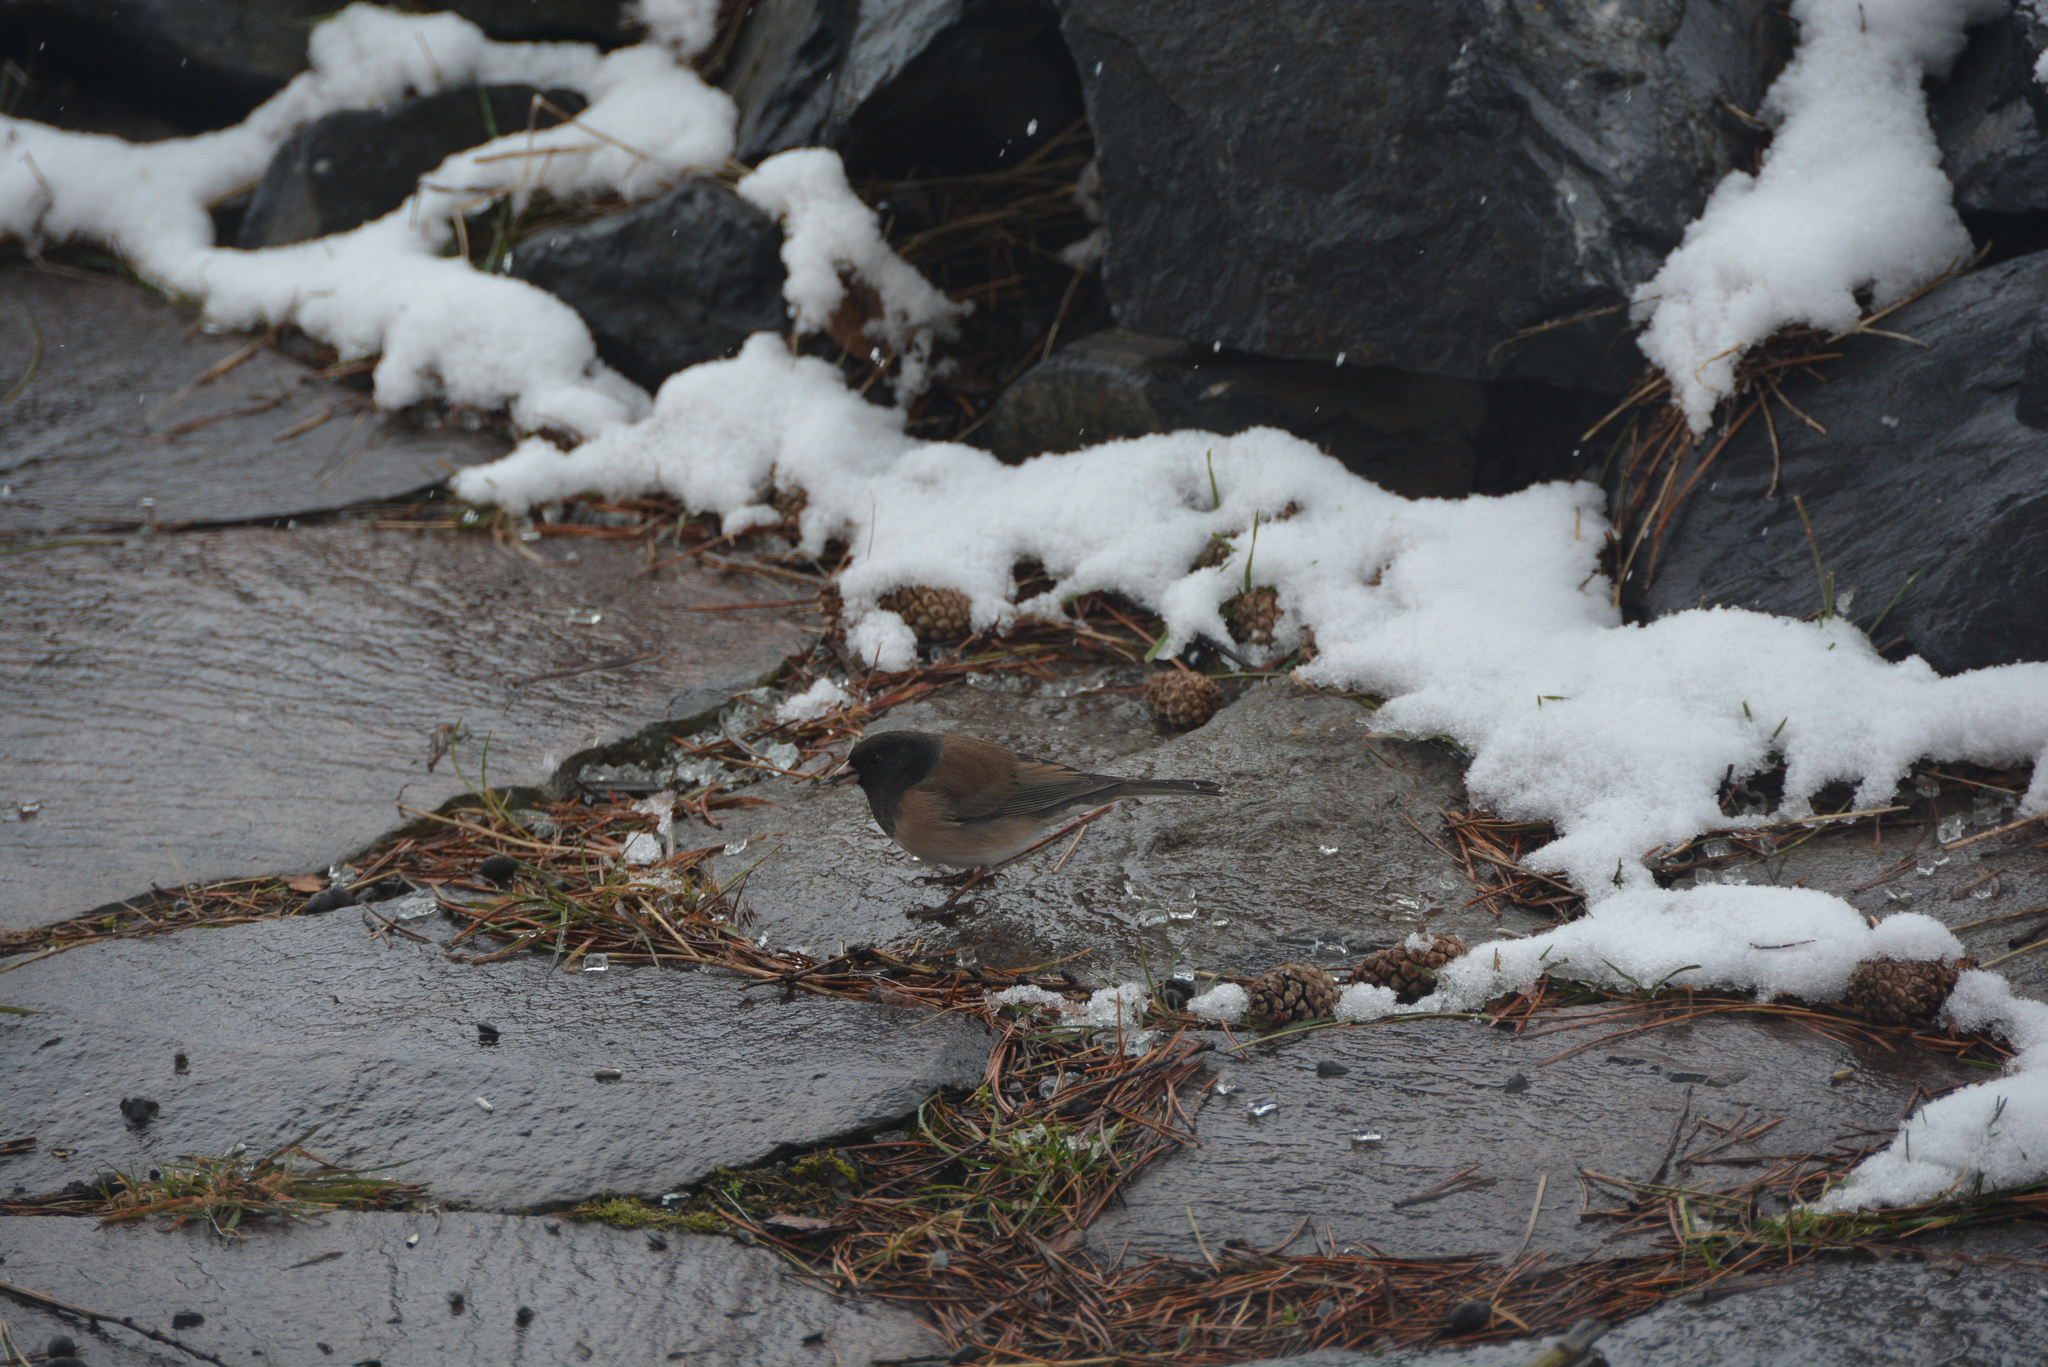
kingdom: Animalia
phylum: Chordata
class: Aves
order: Passeriformes
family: Passerellidae
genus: Junco
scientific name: Junco hyemalis
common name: Dark-eyed junco
